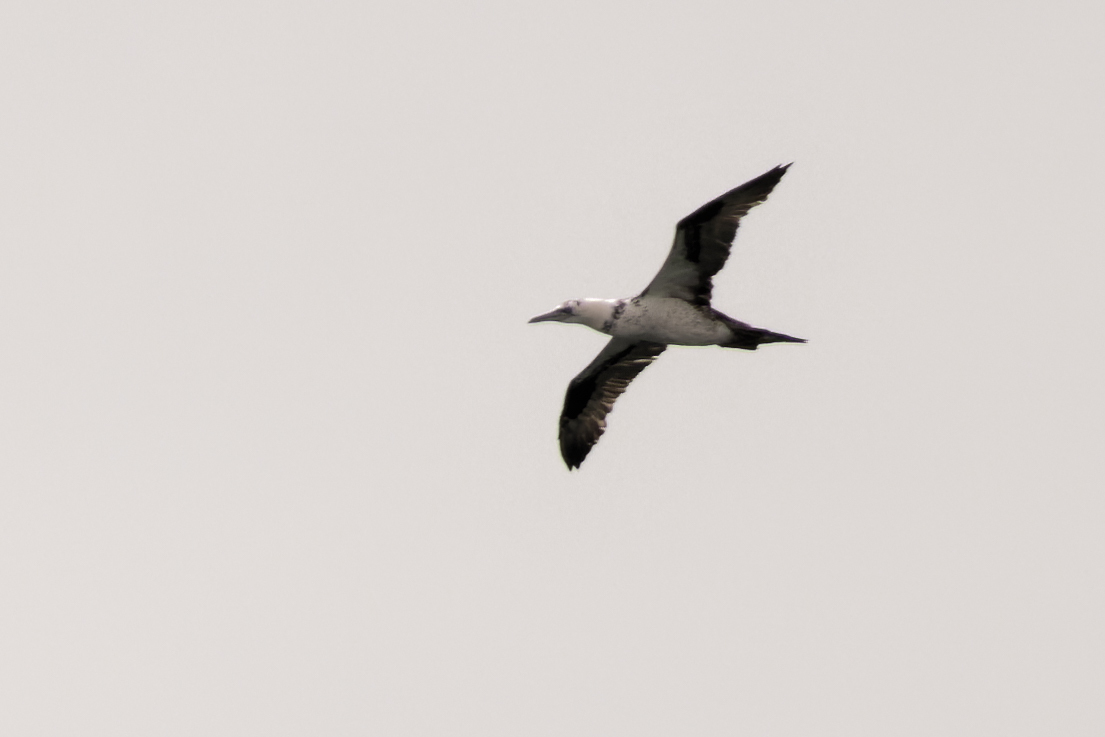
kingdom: Animalia
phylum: Chordata
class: Aves
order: Suliformes
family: Sulidae
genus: Morus
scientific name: Morus bassanus
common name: Northern gannet
